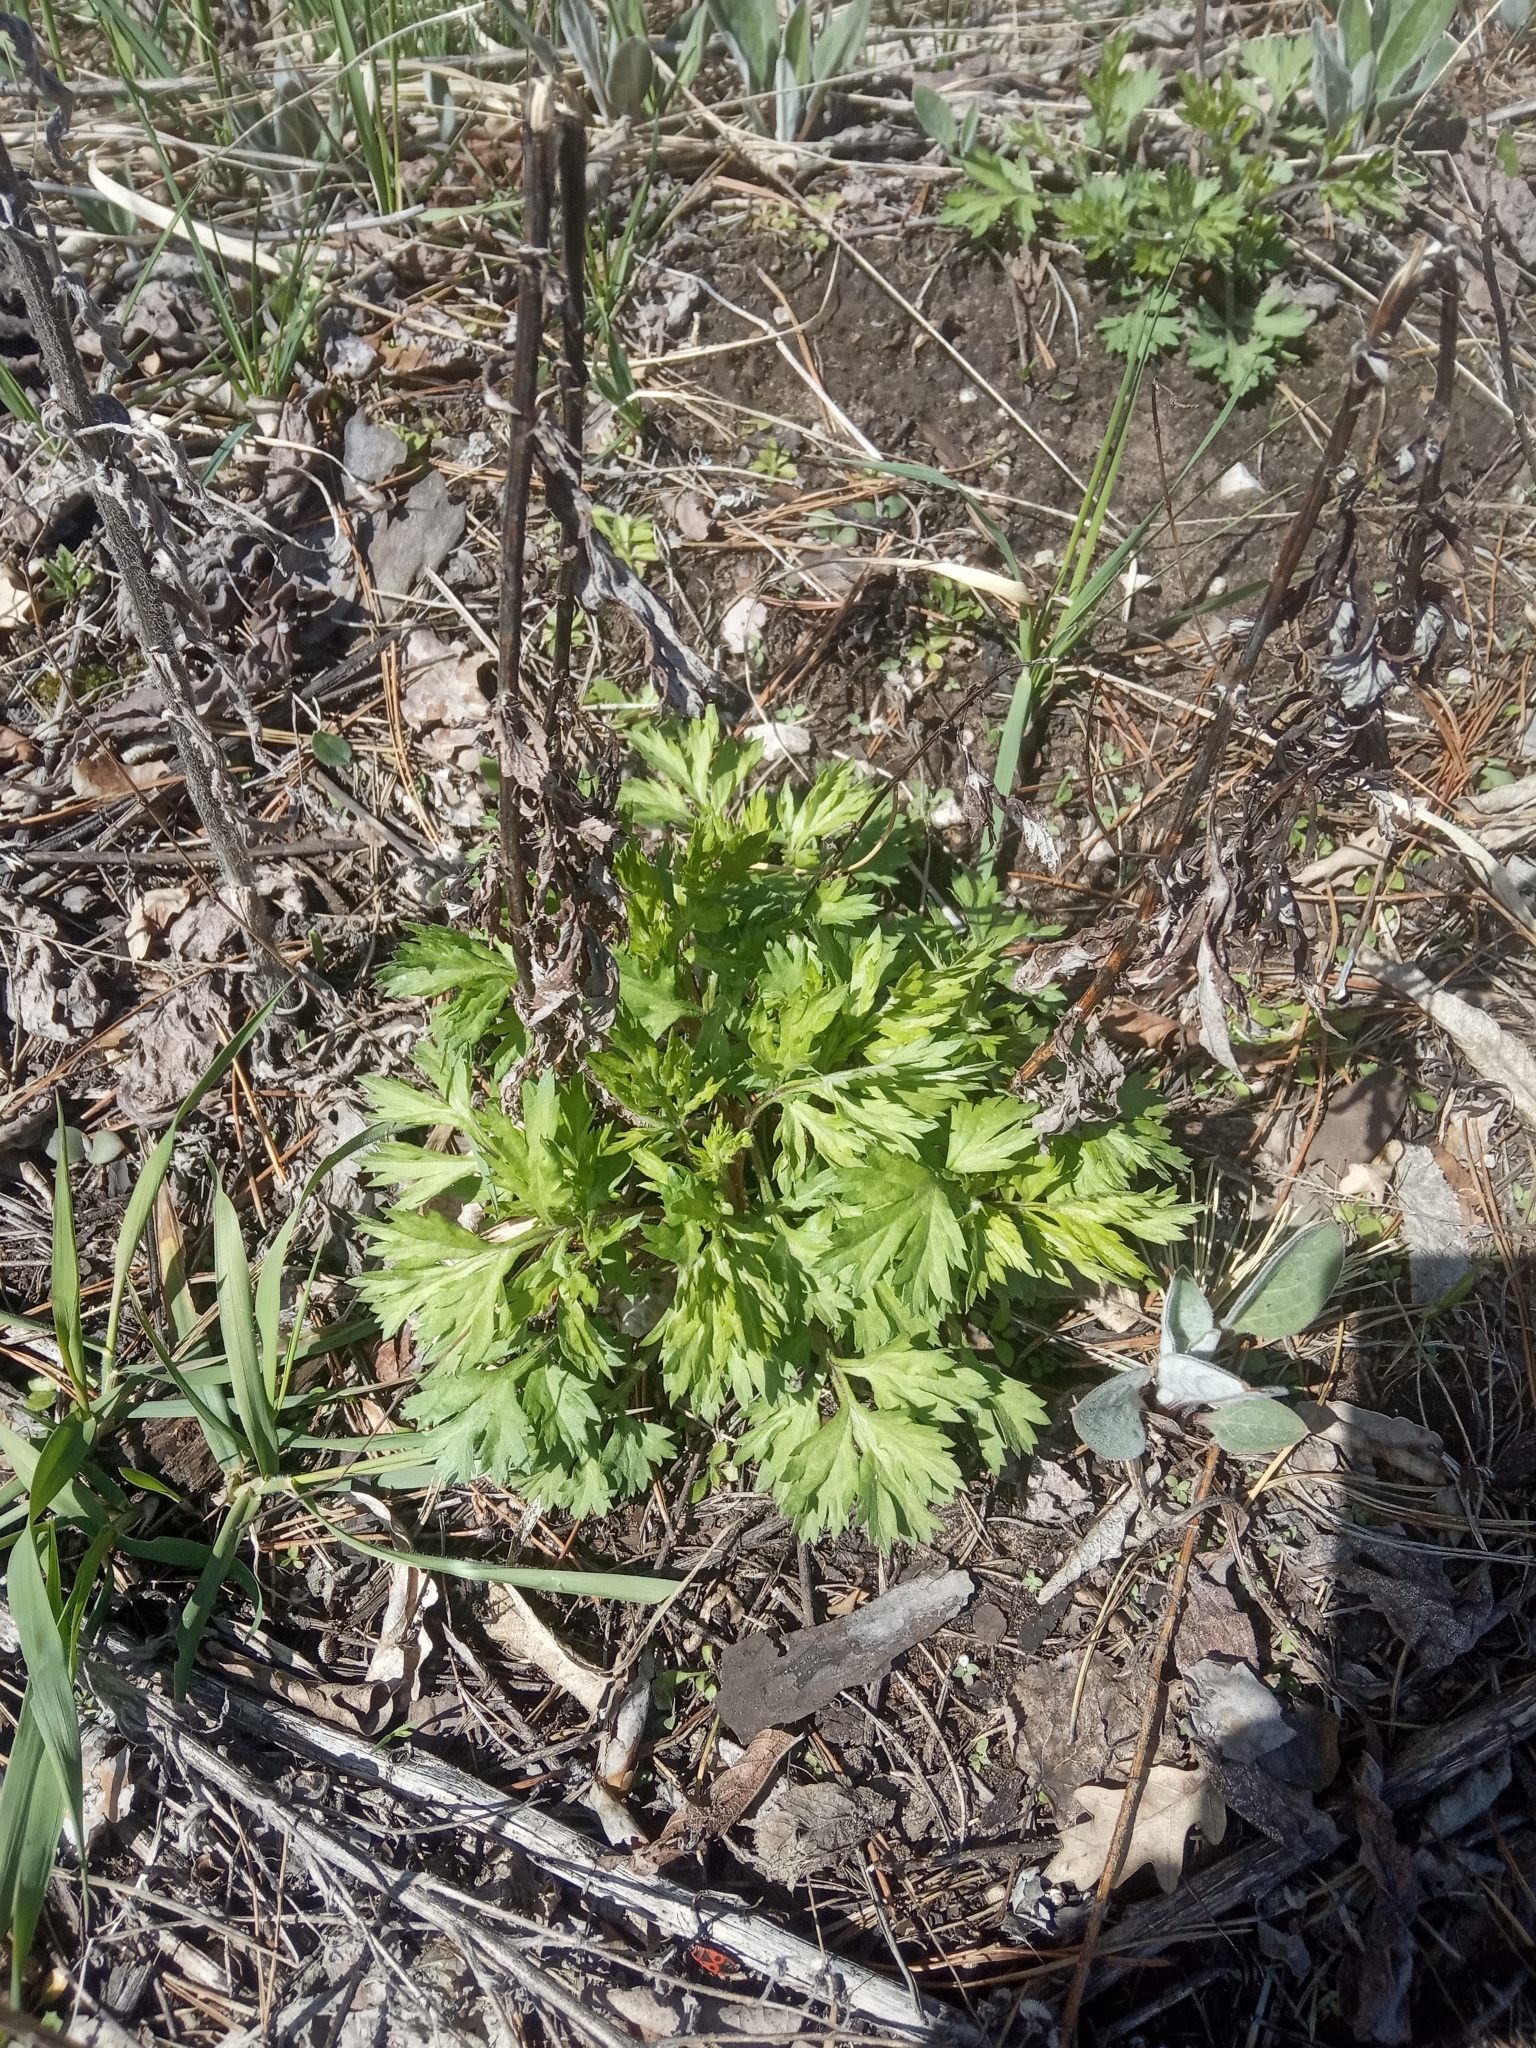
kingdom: Plantae
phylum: Tracheophyta
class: Magnoliopsida
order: Asterales
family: Asteraceae
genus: Artemisia
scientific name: Artemisia vulgaris
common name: Mugwort
